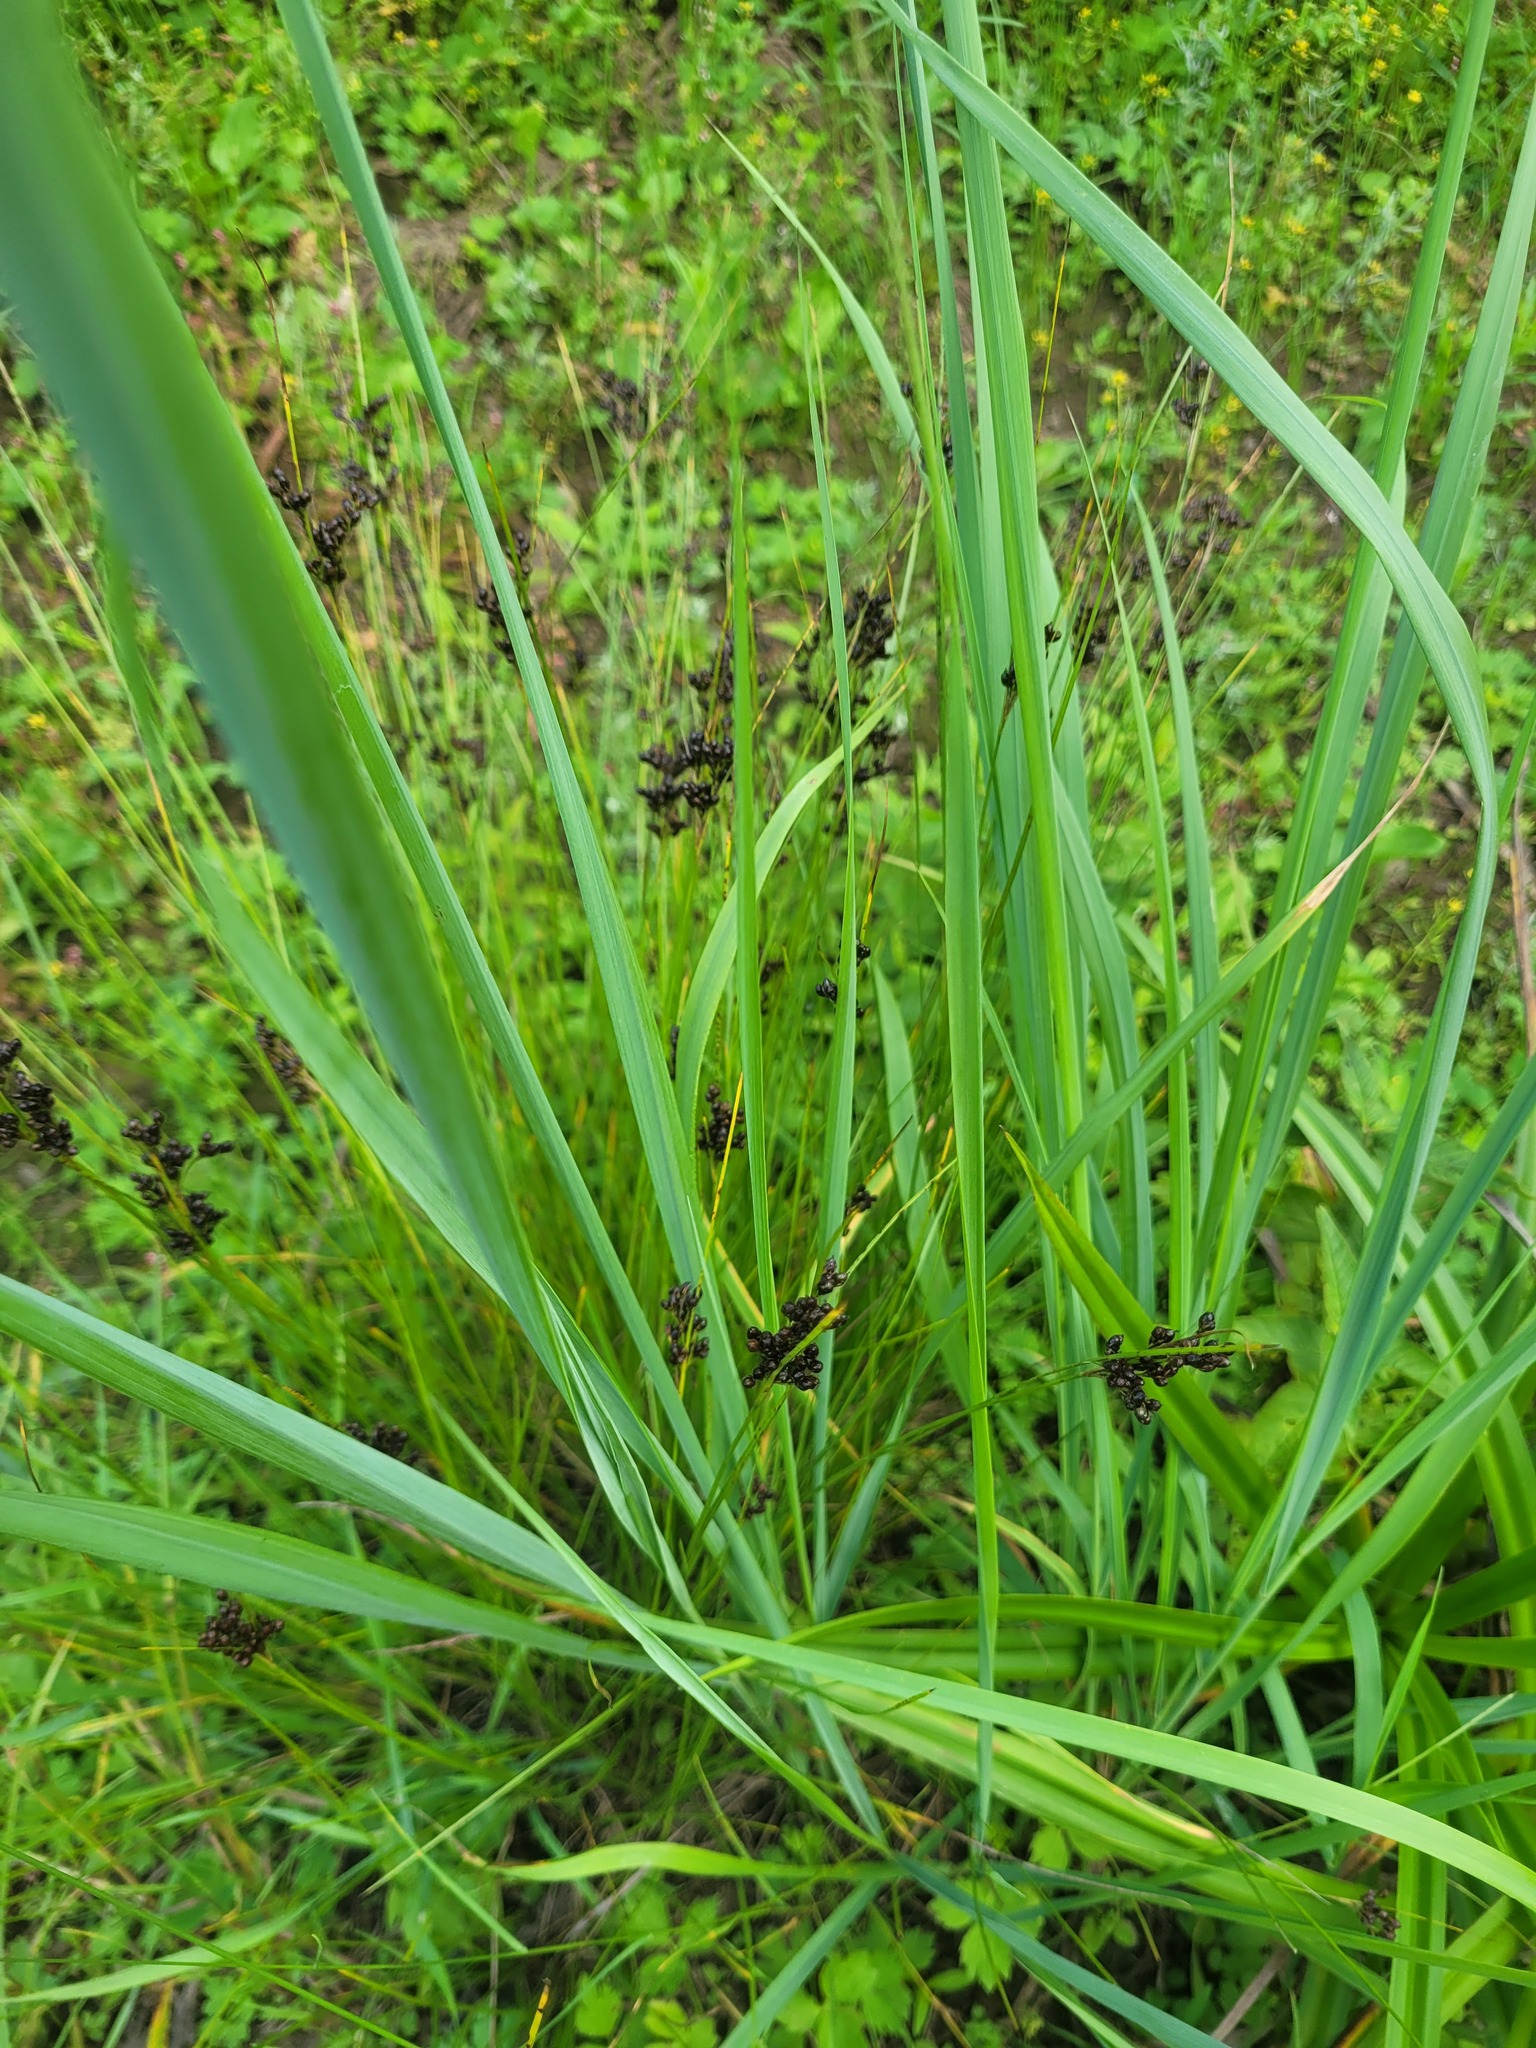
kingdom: Plantae
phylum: Tracheophyta
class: Liliopsida
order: Poales
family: Juncaceae
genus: Juncus
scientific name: Juncus compressus
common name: Round-fruited rush
